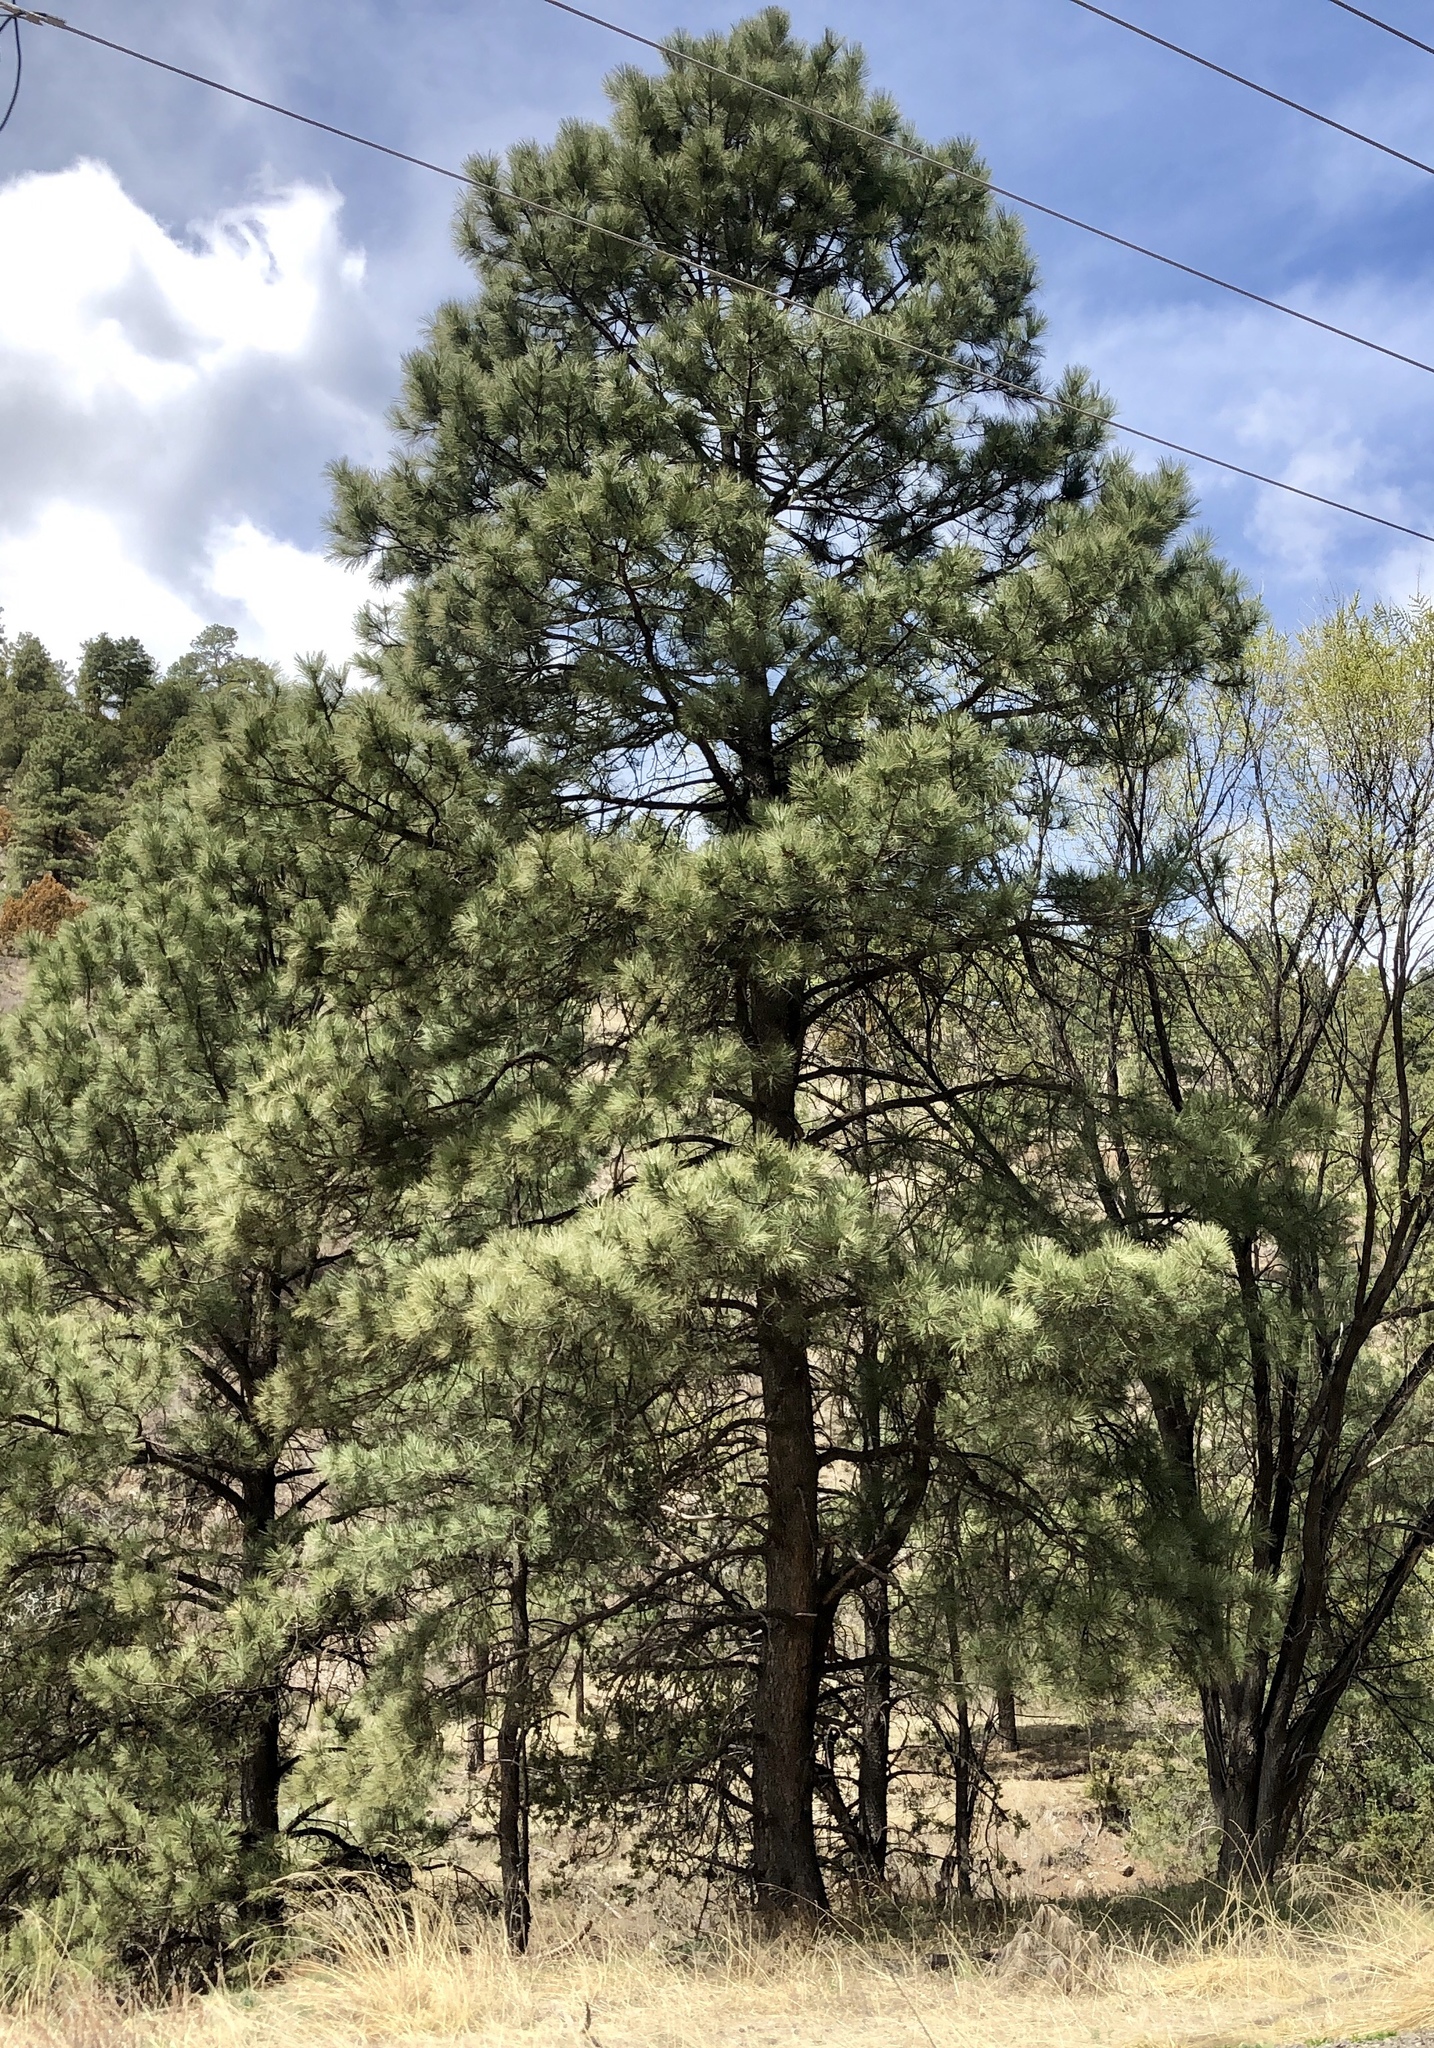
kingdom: Plantae
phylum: Tracheophyta
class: Pinopsida
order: Pinales
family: Pinaceae
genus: Pinus
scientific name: Pinus ponderosa
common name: Western yellow-pine
